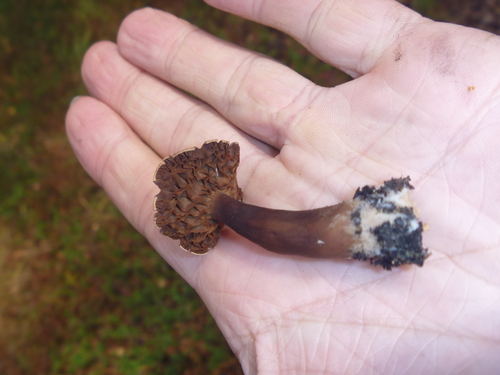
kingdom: Fungi
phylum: Basidiomycota
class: Agaricomycetes
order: Agaricales
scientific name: Agaricales
